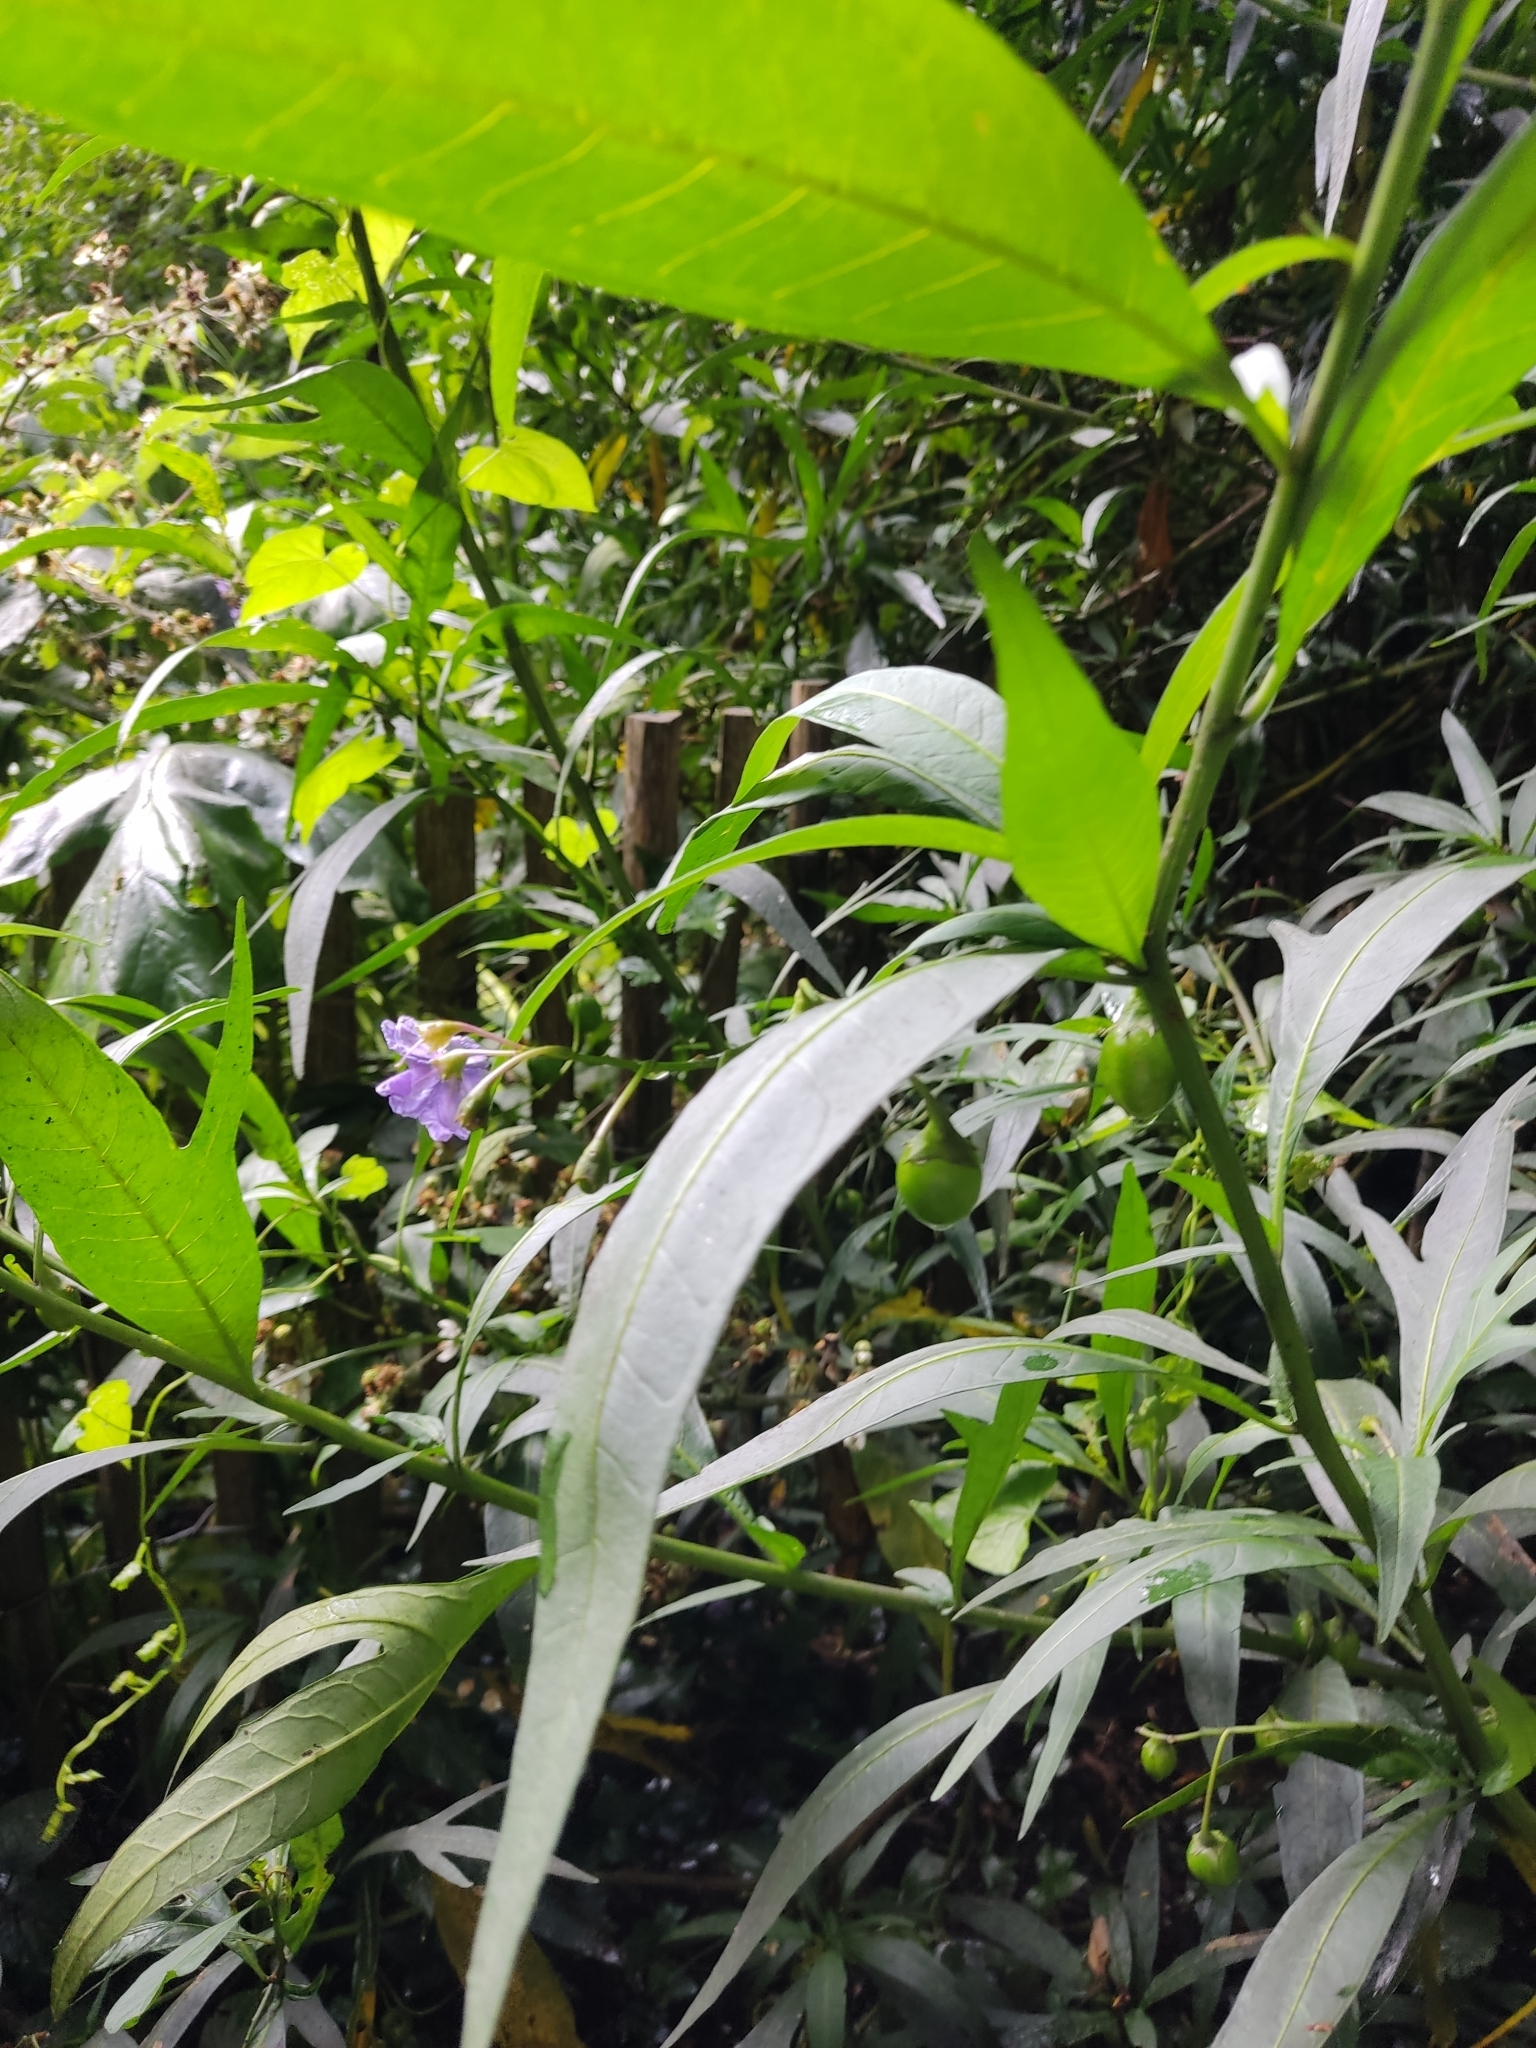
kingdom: Plantae
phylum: Tracheophyta
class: Magnoliopsida
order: Solanales
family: Solanaceae
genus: Solanum
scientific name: Solanum laciniatum
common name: Kangaroo-apple
